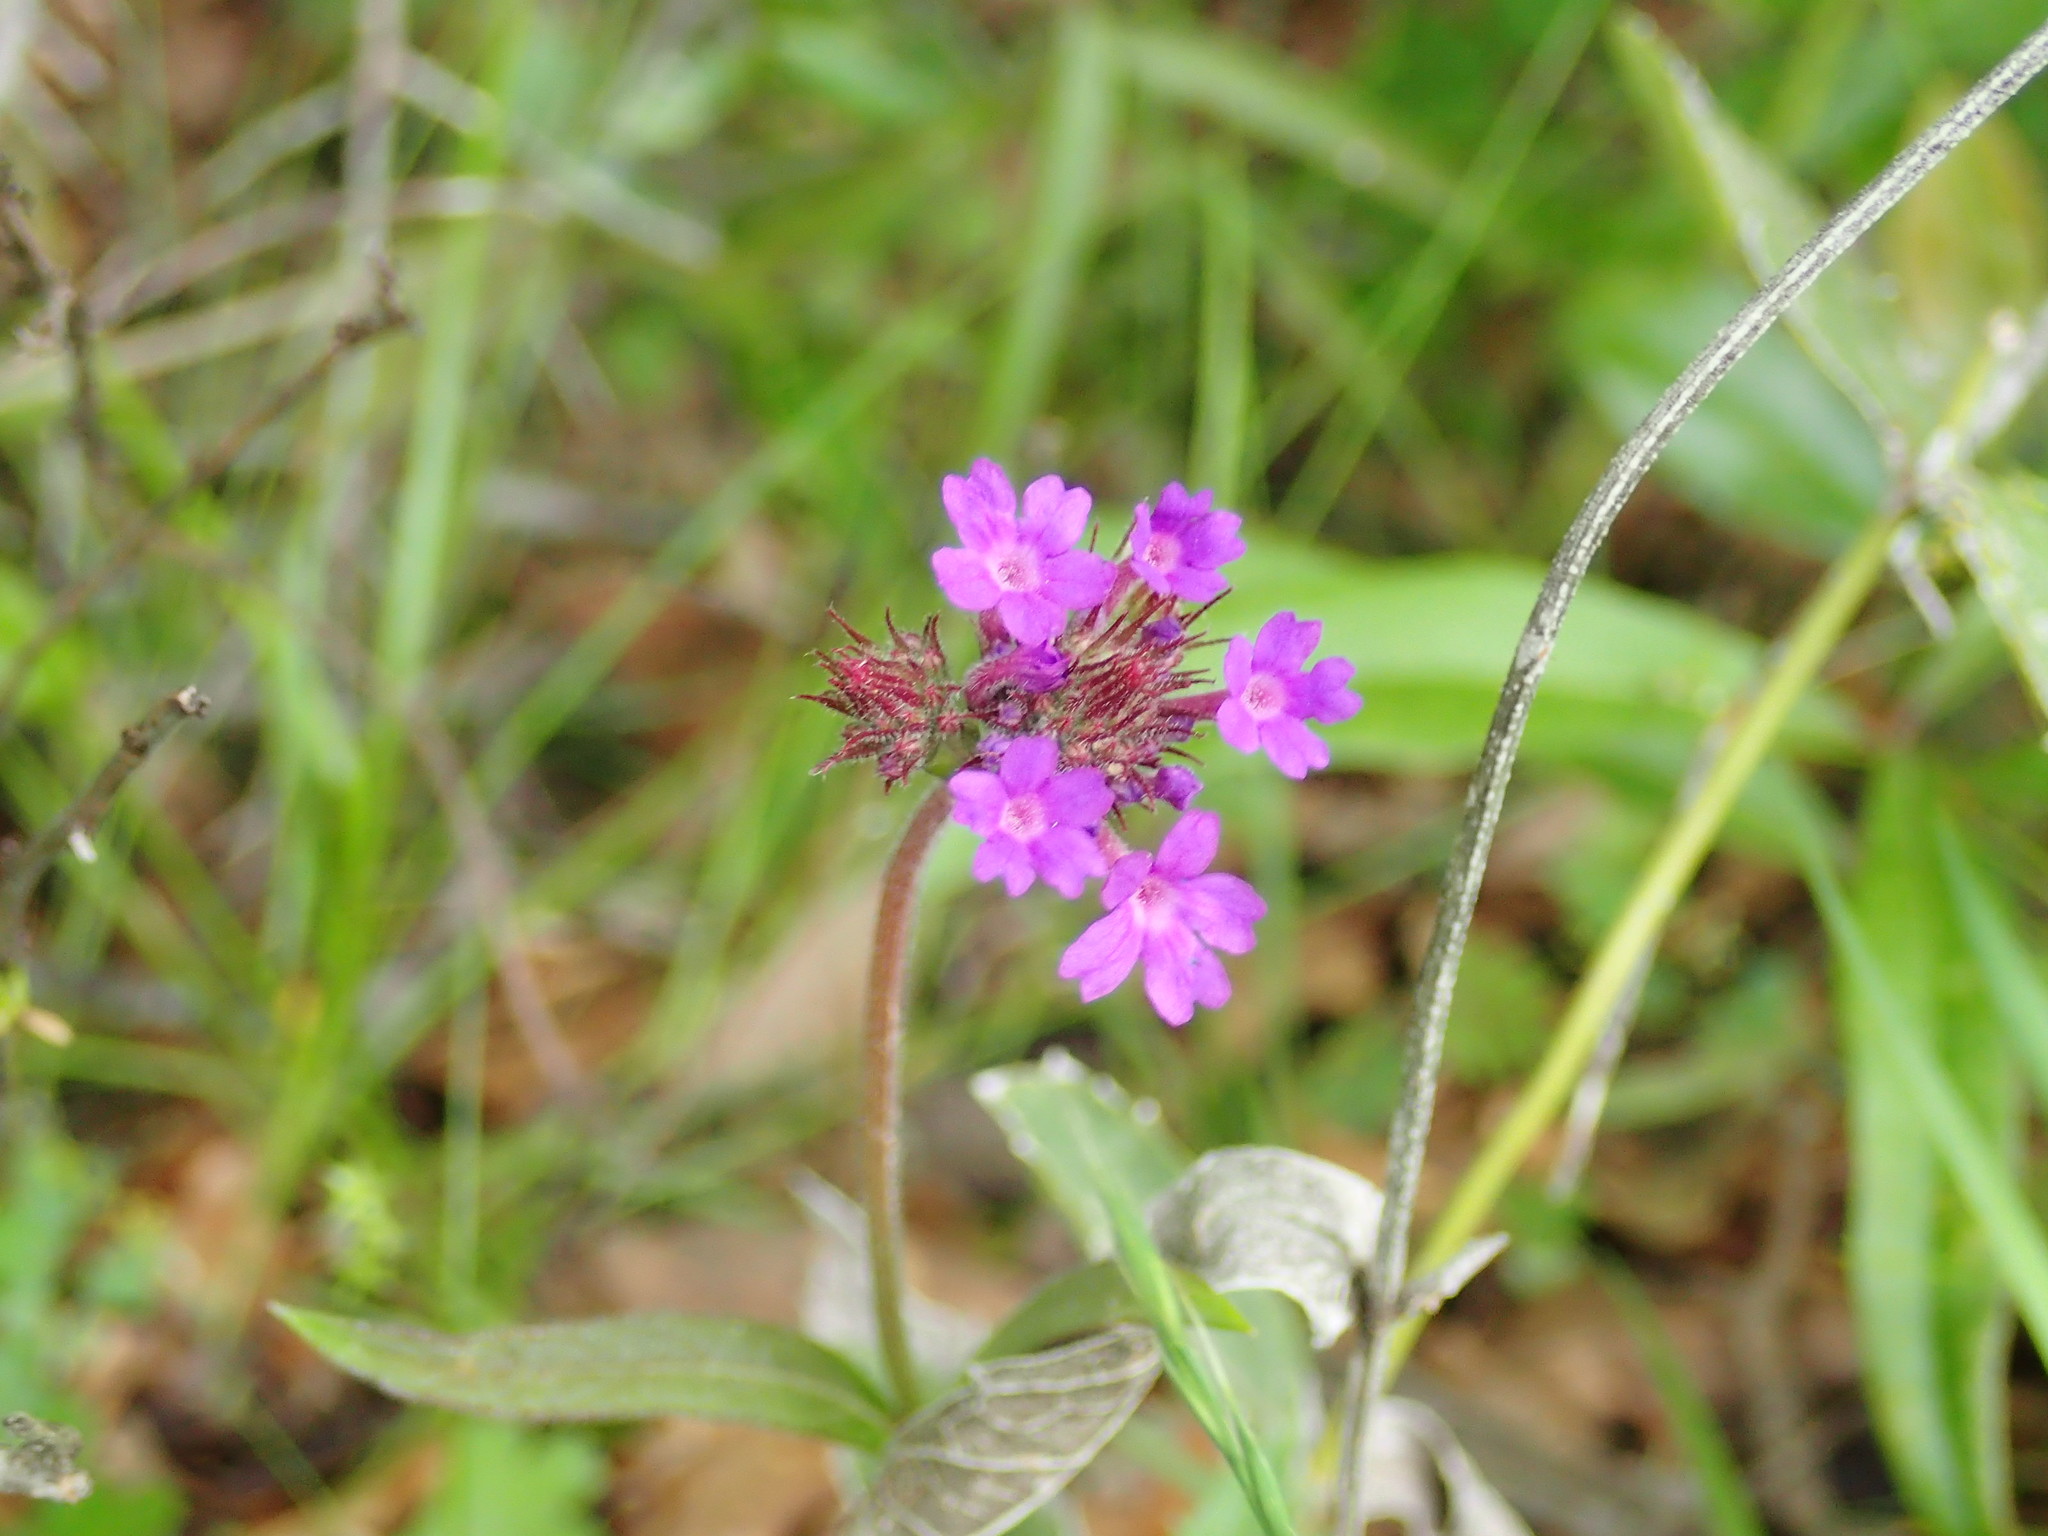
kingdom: Plantae
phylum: Tracheophyta
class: Magnoliopsida
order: Lamiales
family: Verbenaceae
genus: Verbena
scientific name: Verbena rigida
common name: Slender vervain
